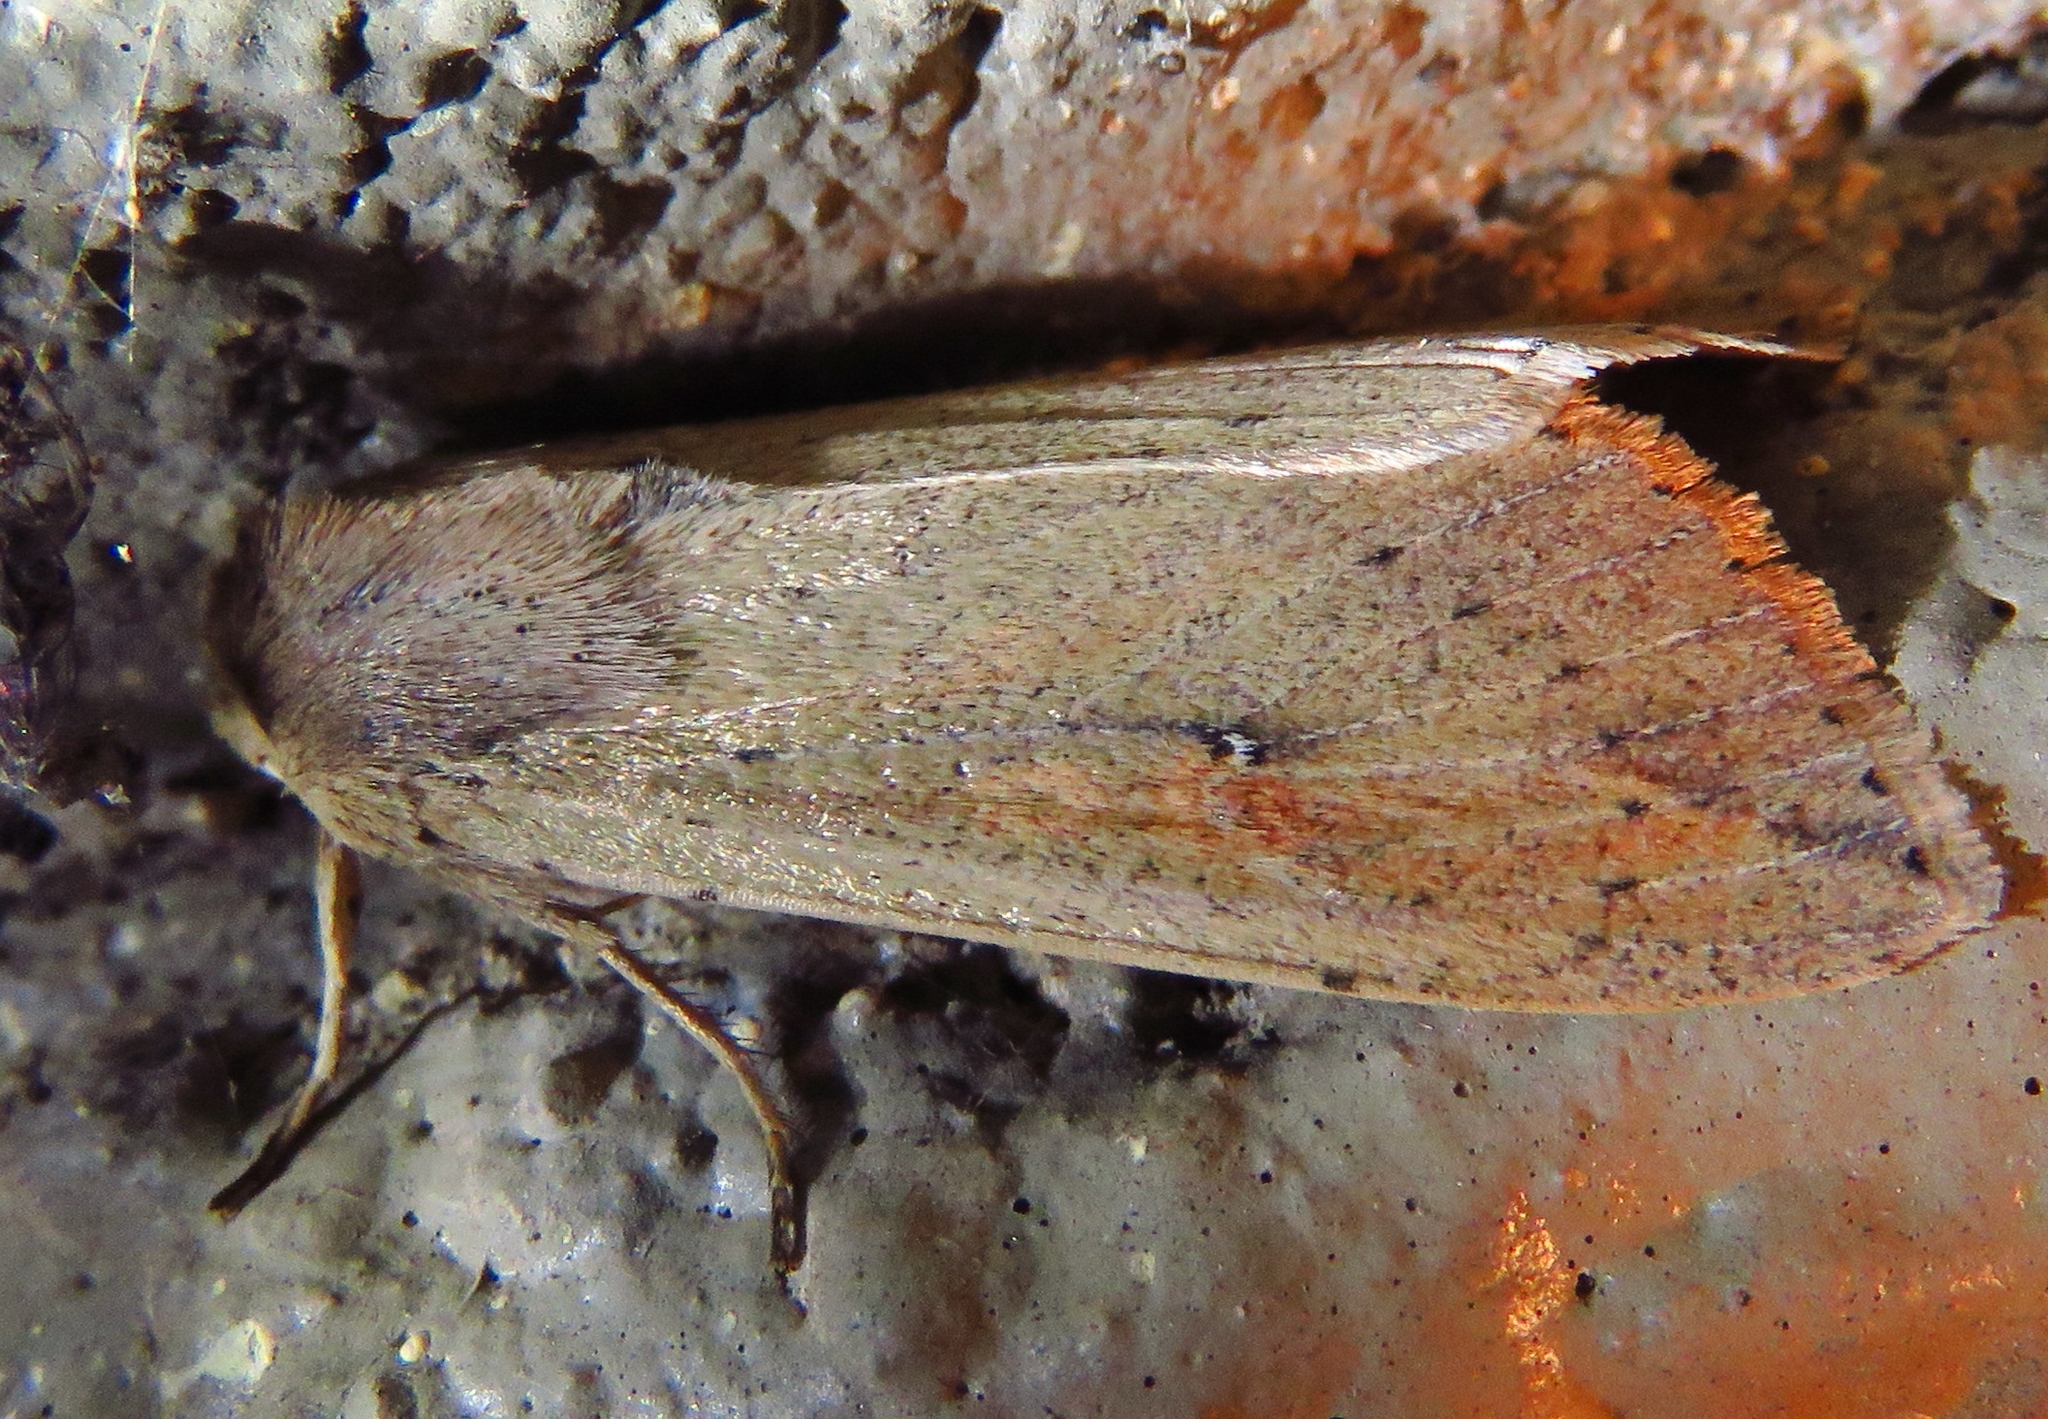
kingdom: Animalia
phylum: Arthropoda
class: Insecta
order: Lepidoptera
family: Noctuidae
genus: Mythimna
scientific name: Mythimna unipuncta
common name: White-speck
